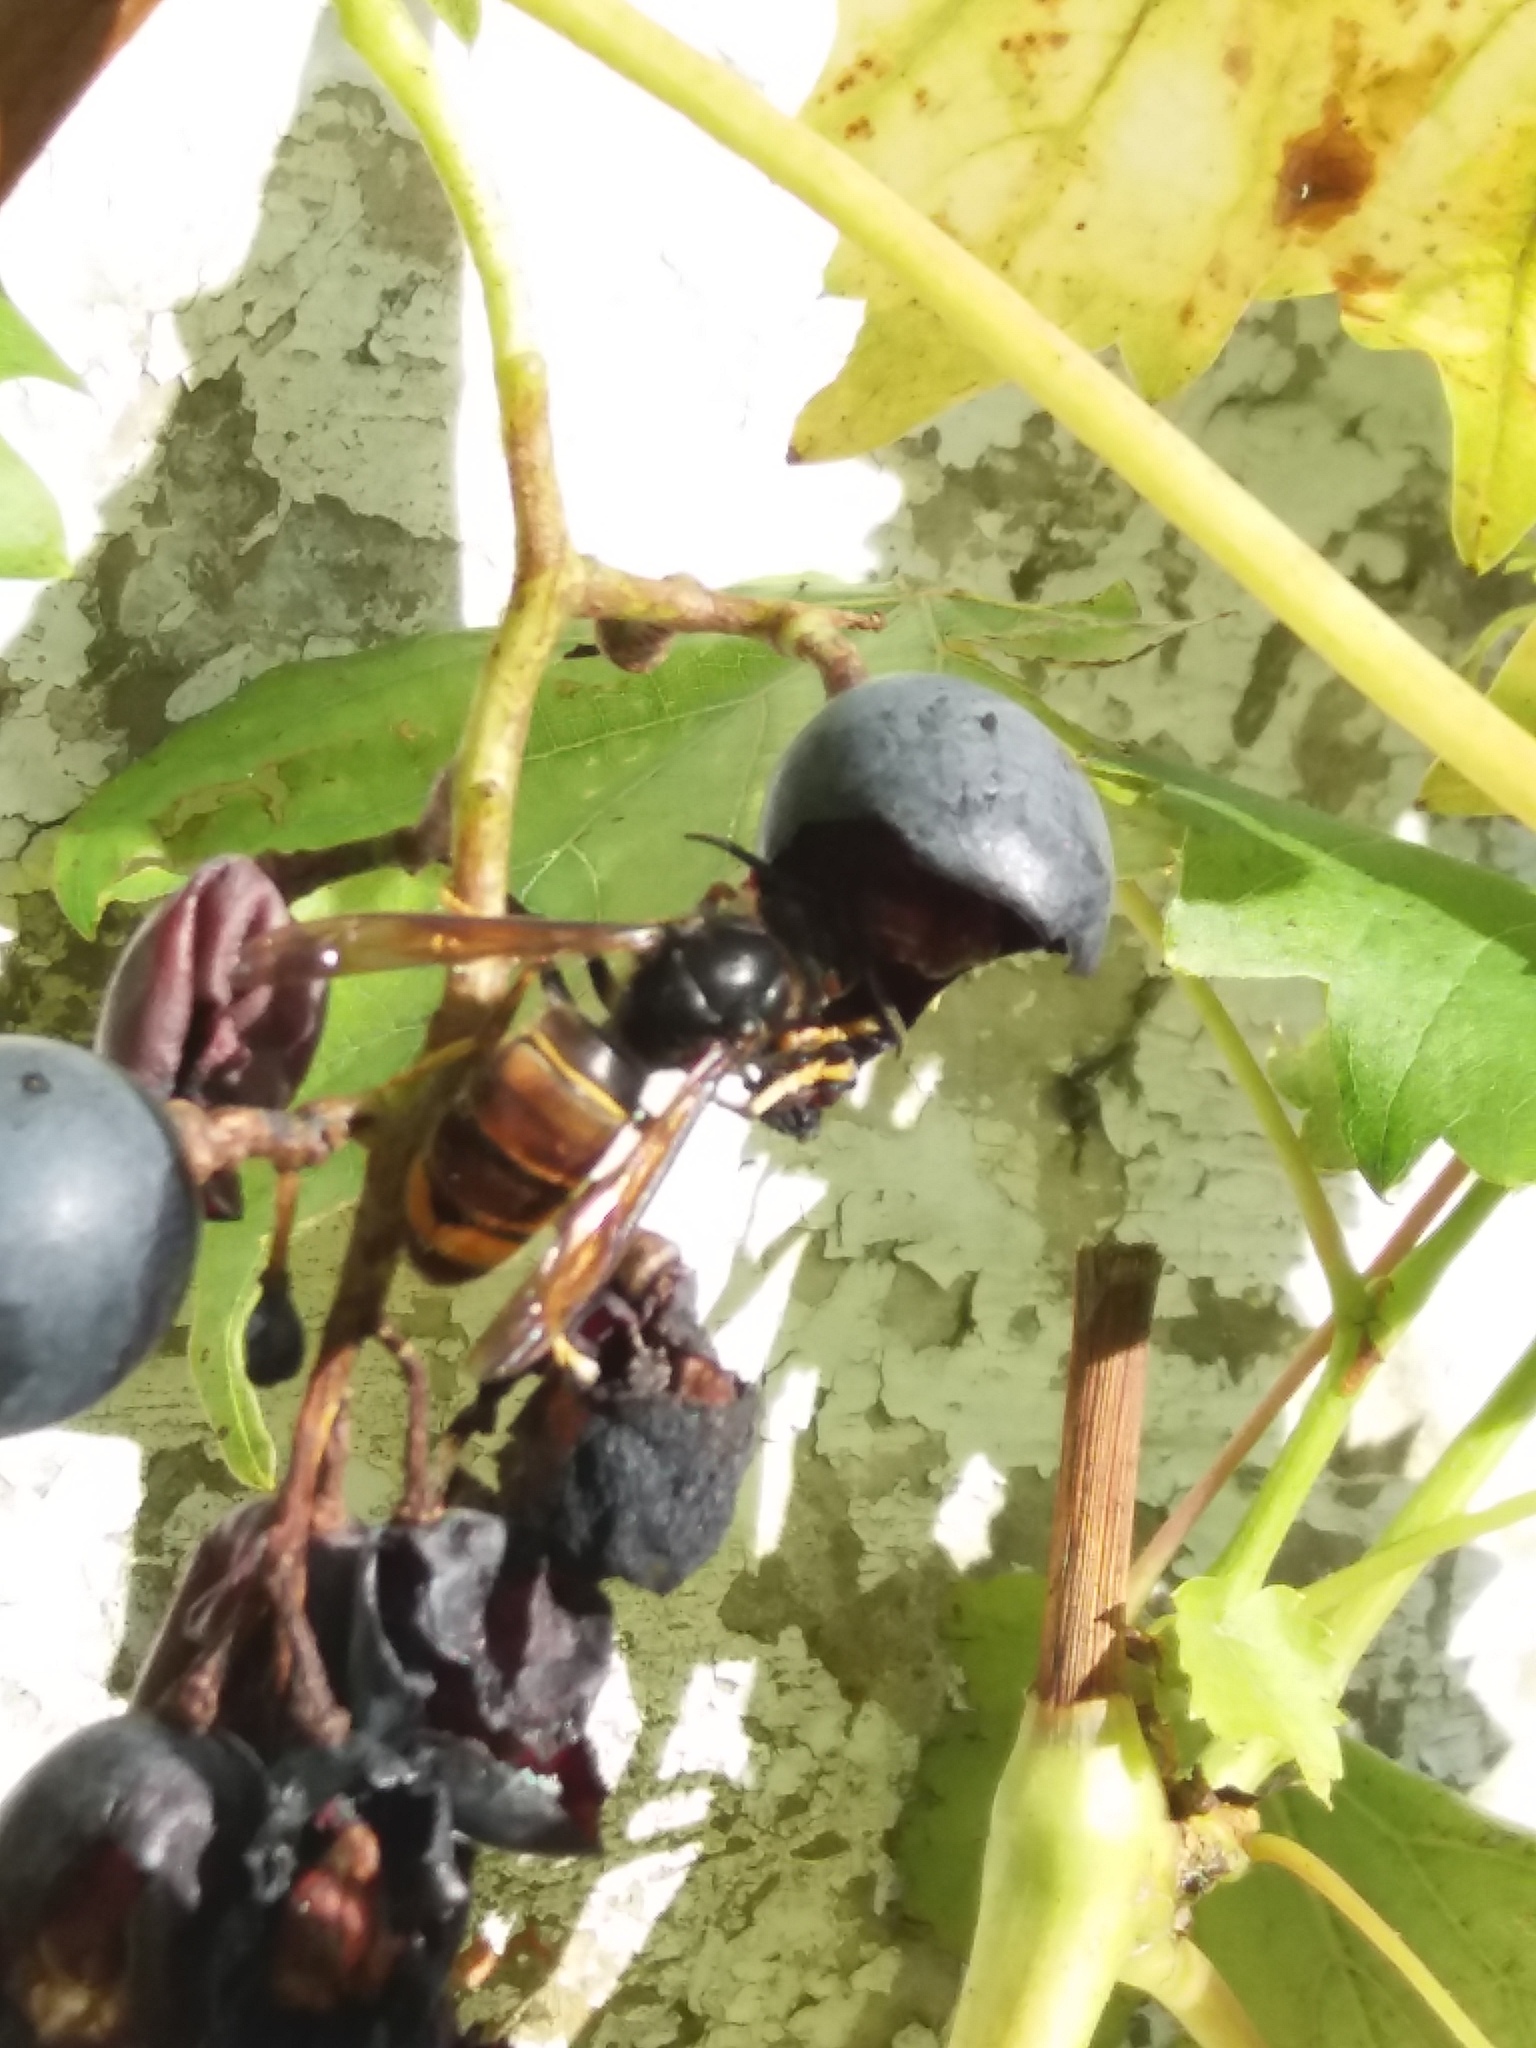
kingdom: Animalia
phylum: Arthropoda
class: Insecta
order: Hymenoptera
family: Vespidae
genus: Vespa
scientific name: Vespa velutina
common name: Asian hornet
